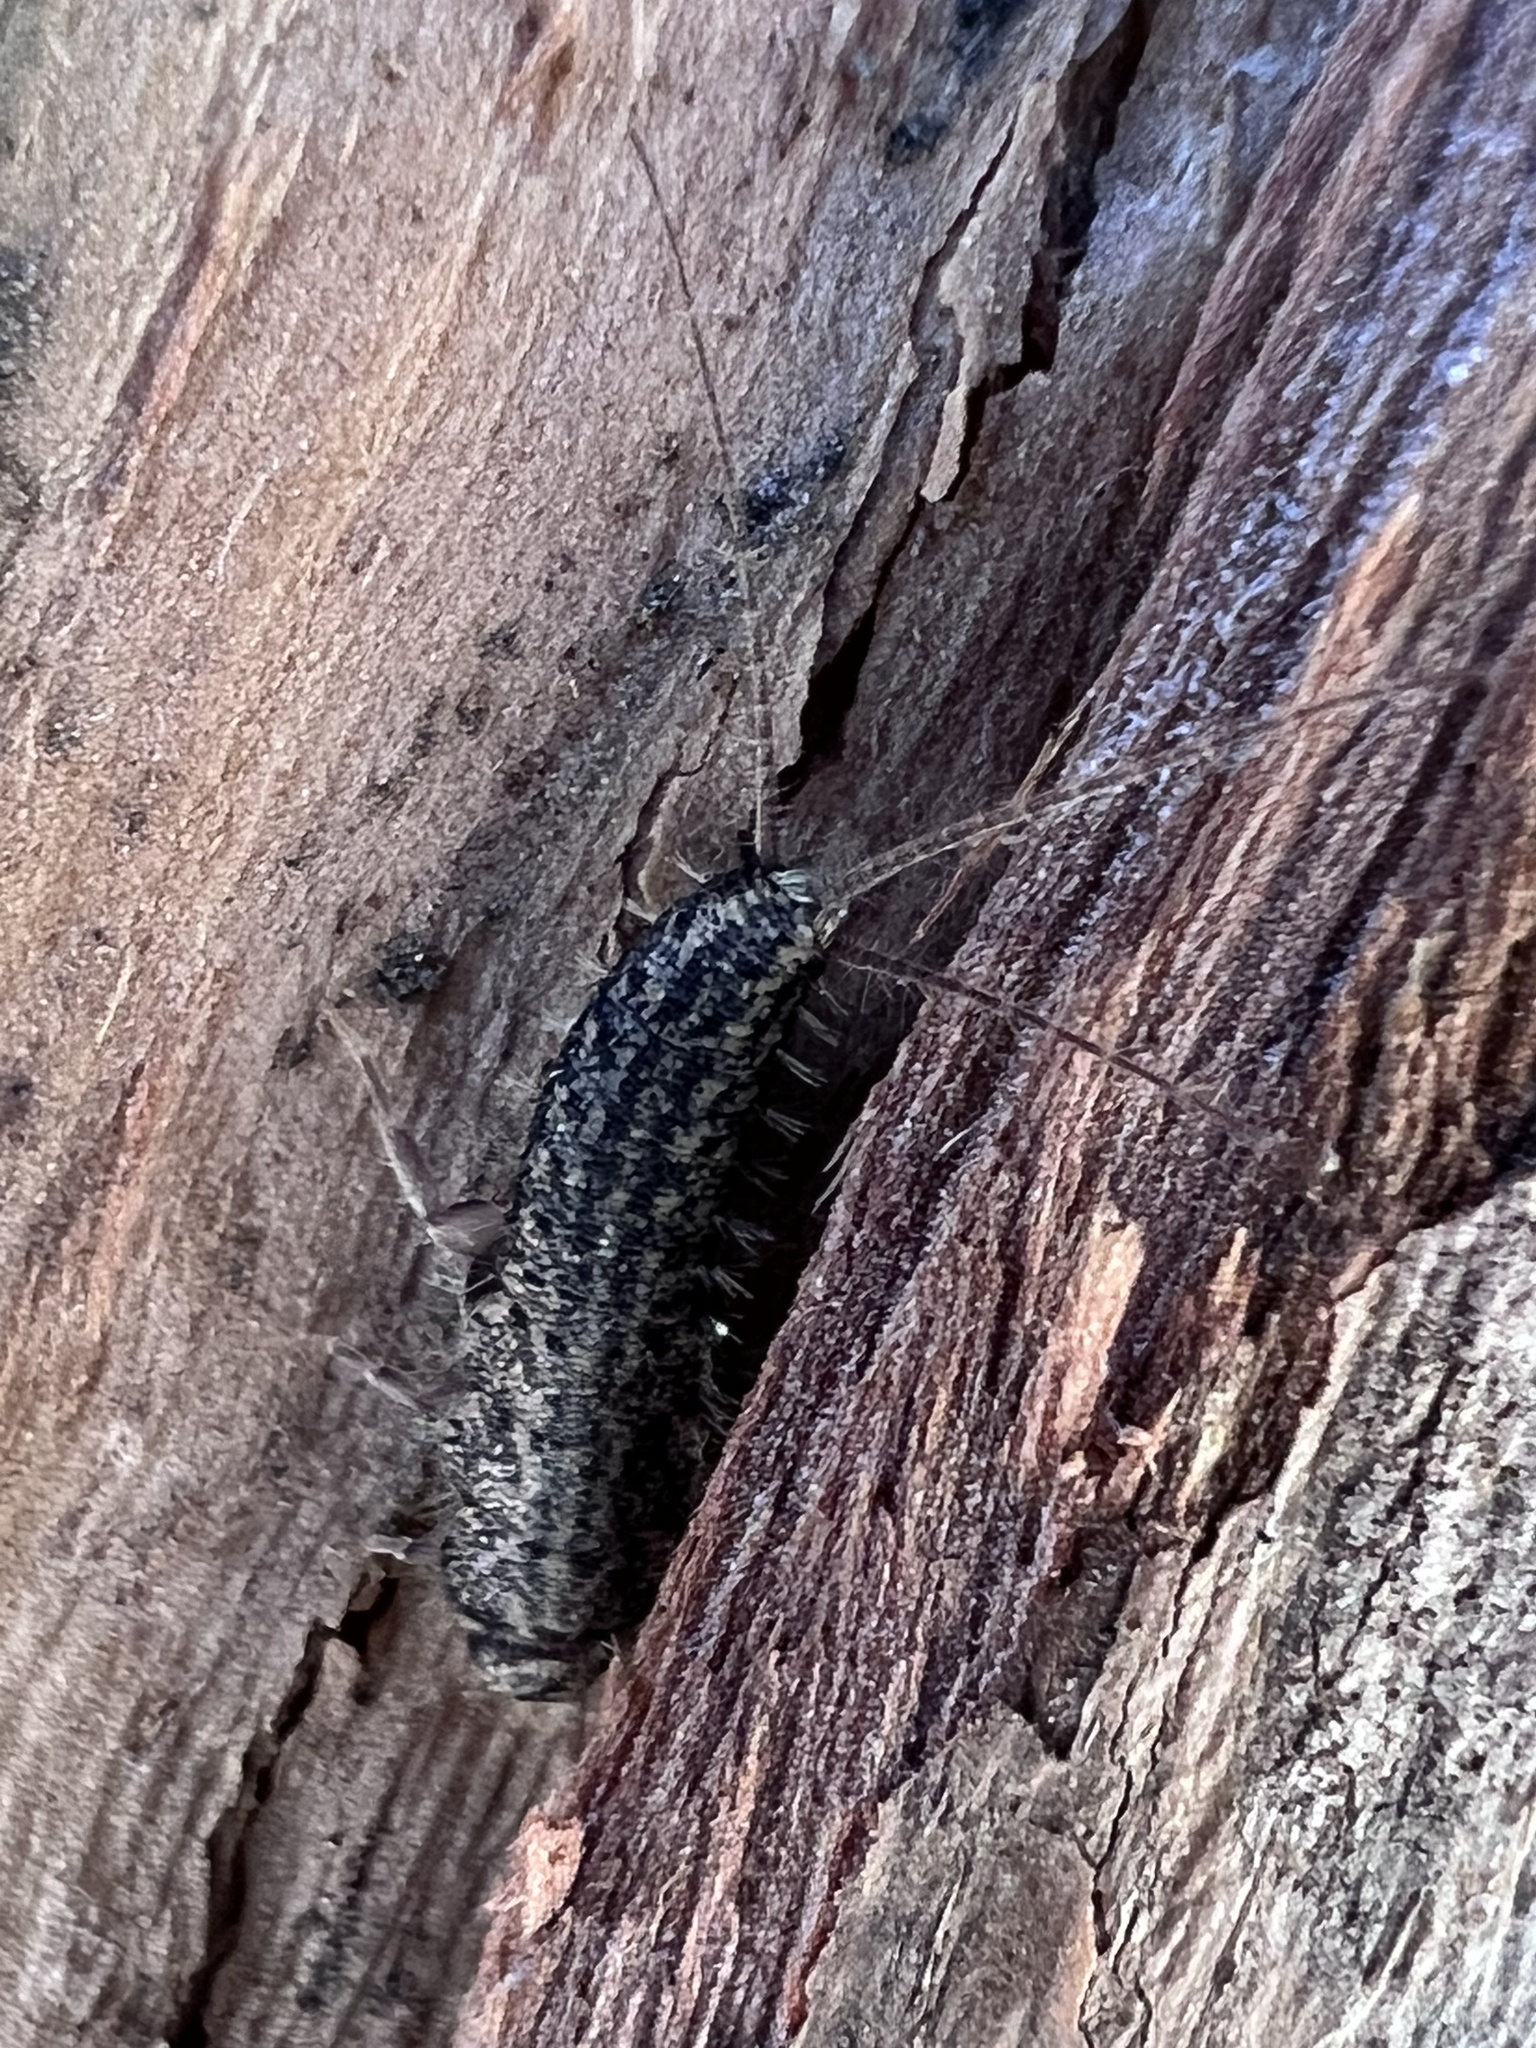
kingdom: Animalia
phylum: Arthropoda
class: Insecta
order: Zygentoma
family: Lepismatidae
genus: Ctenolepisma
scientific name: Ctenolepisma lineata
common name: Four-lined silverfish
